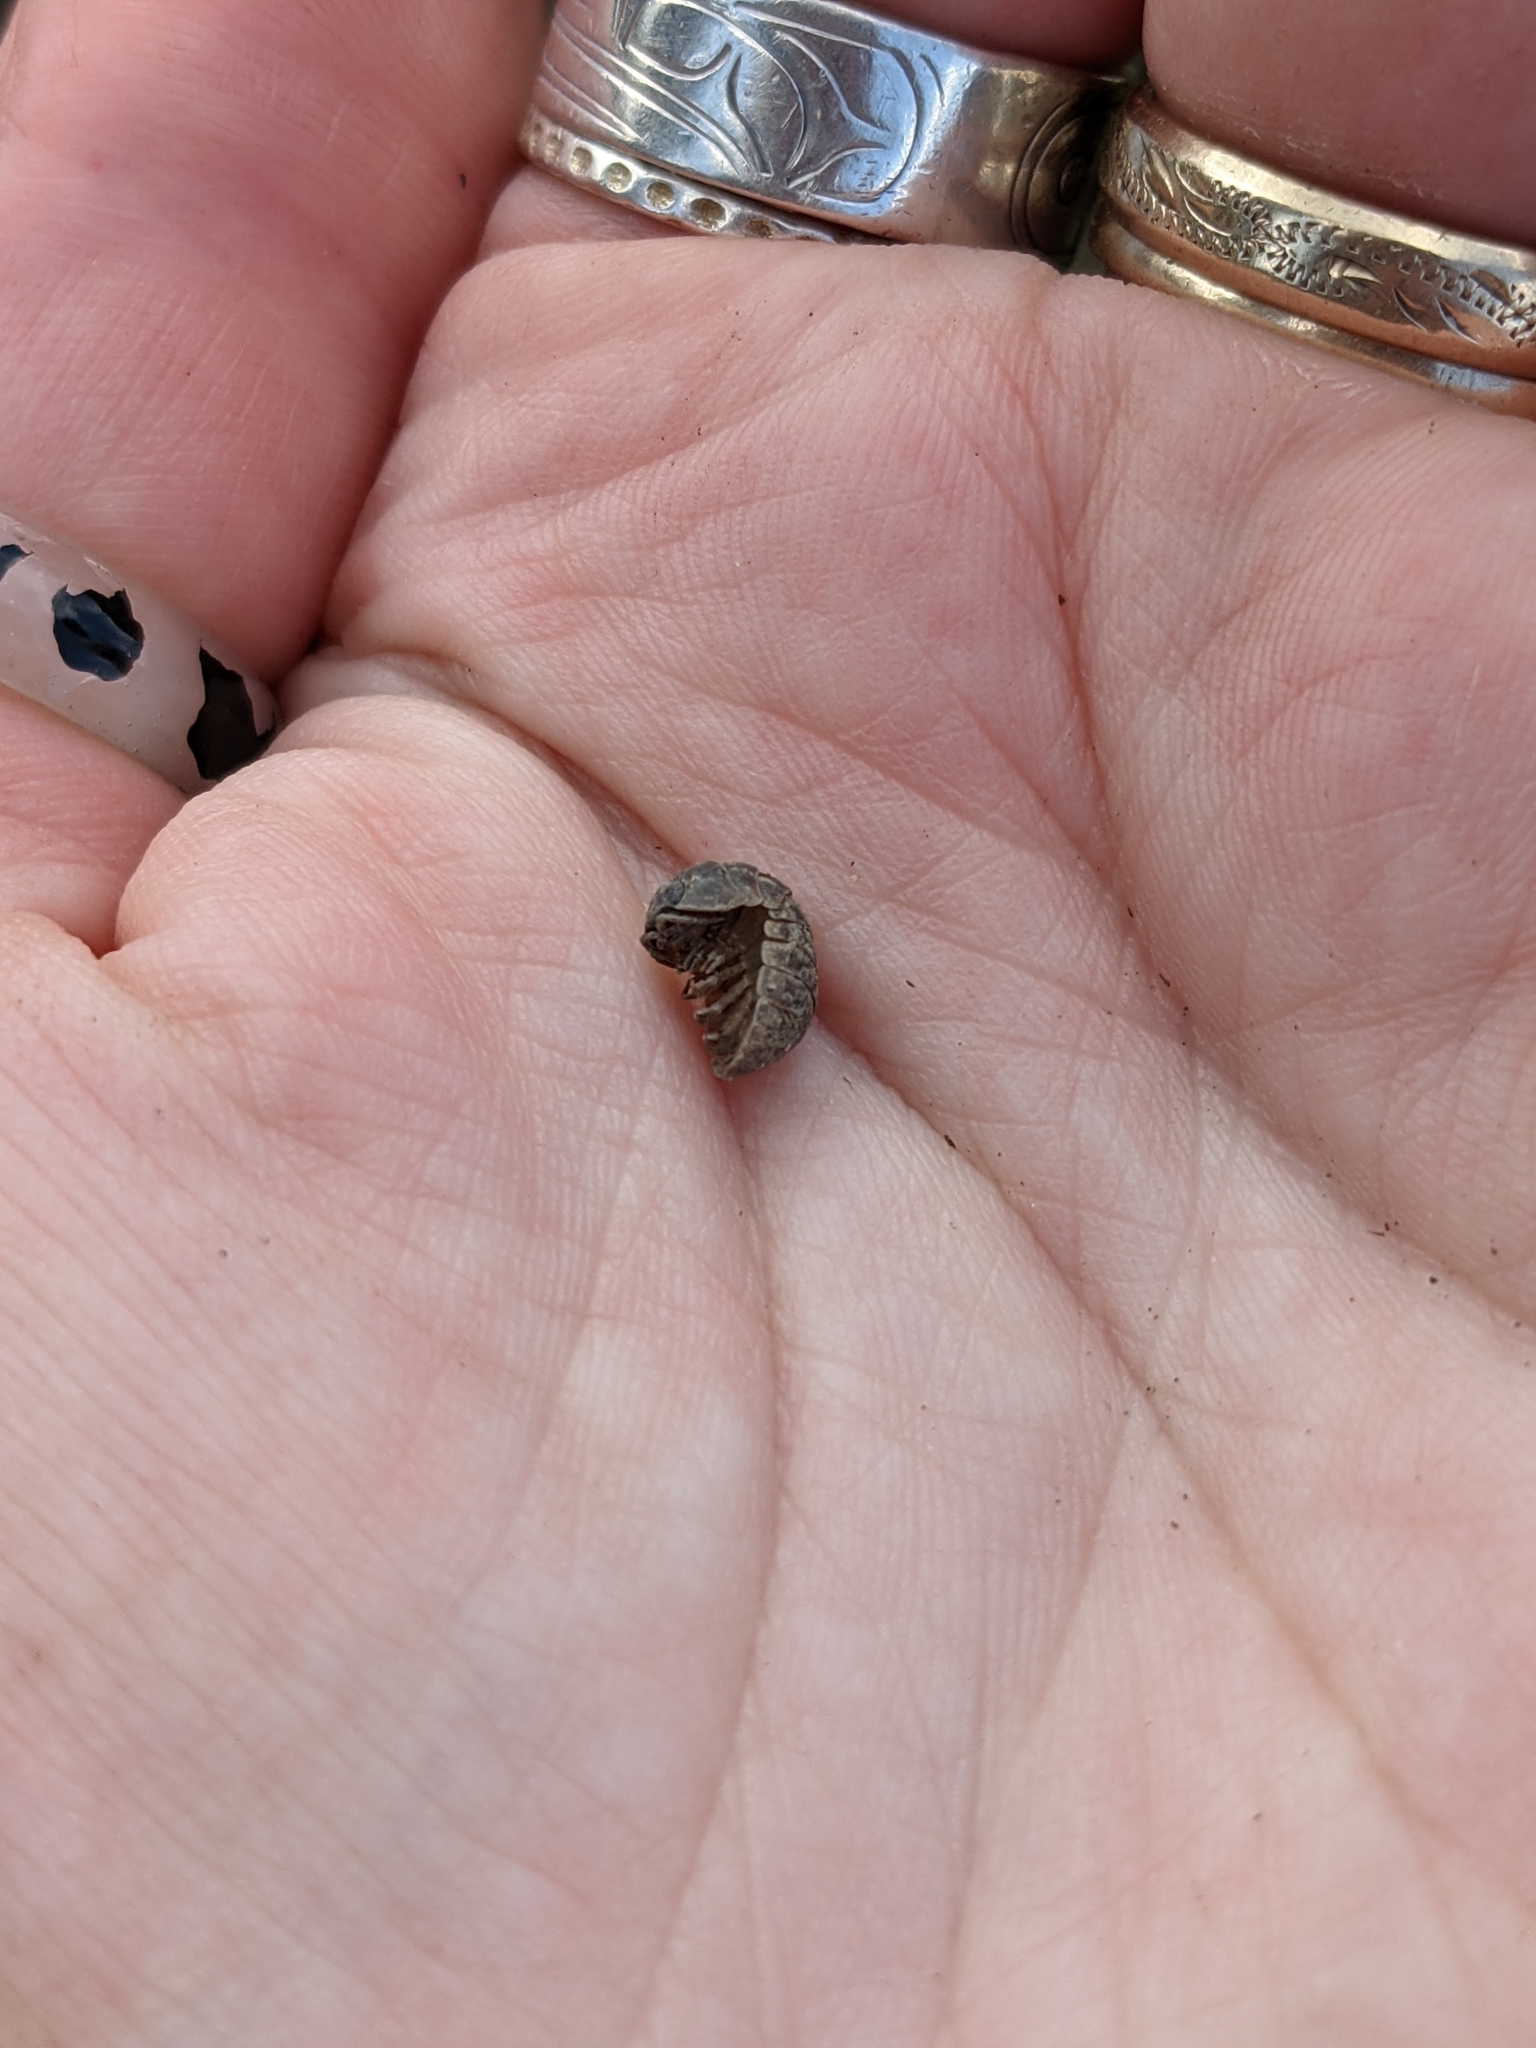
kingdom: Animalia
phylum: Arthropoda
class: Malacostraca
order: Isopoda
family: Armadillidiidae
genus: Armadillidium
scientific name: Armadillidium vulgare
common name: Common pill woodlouse
